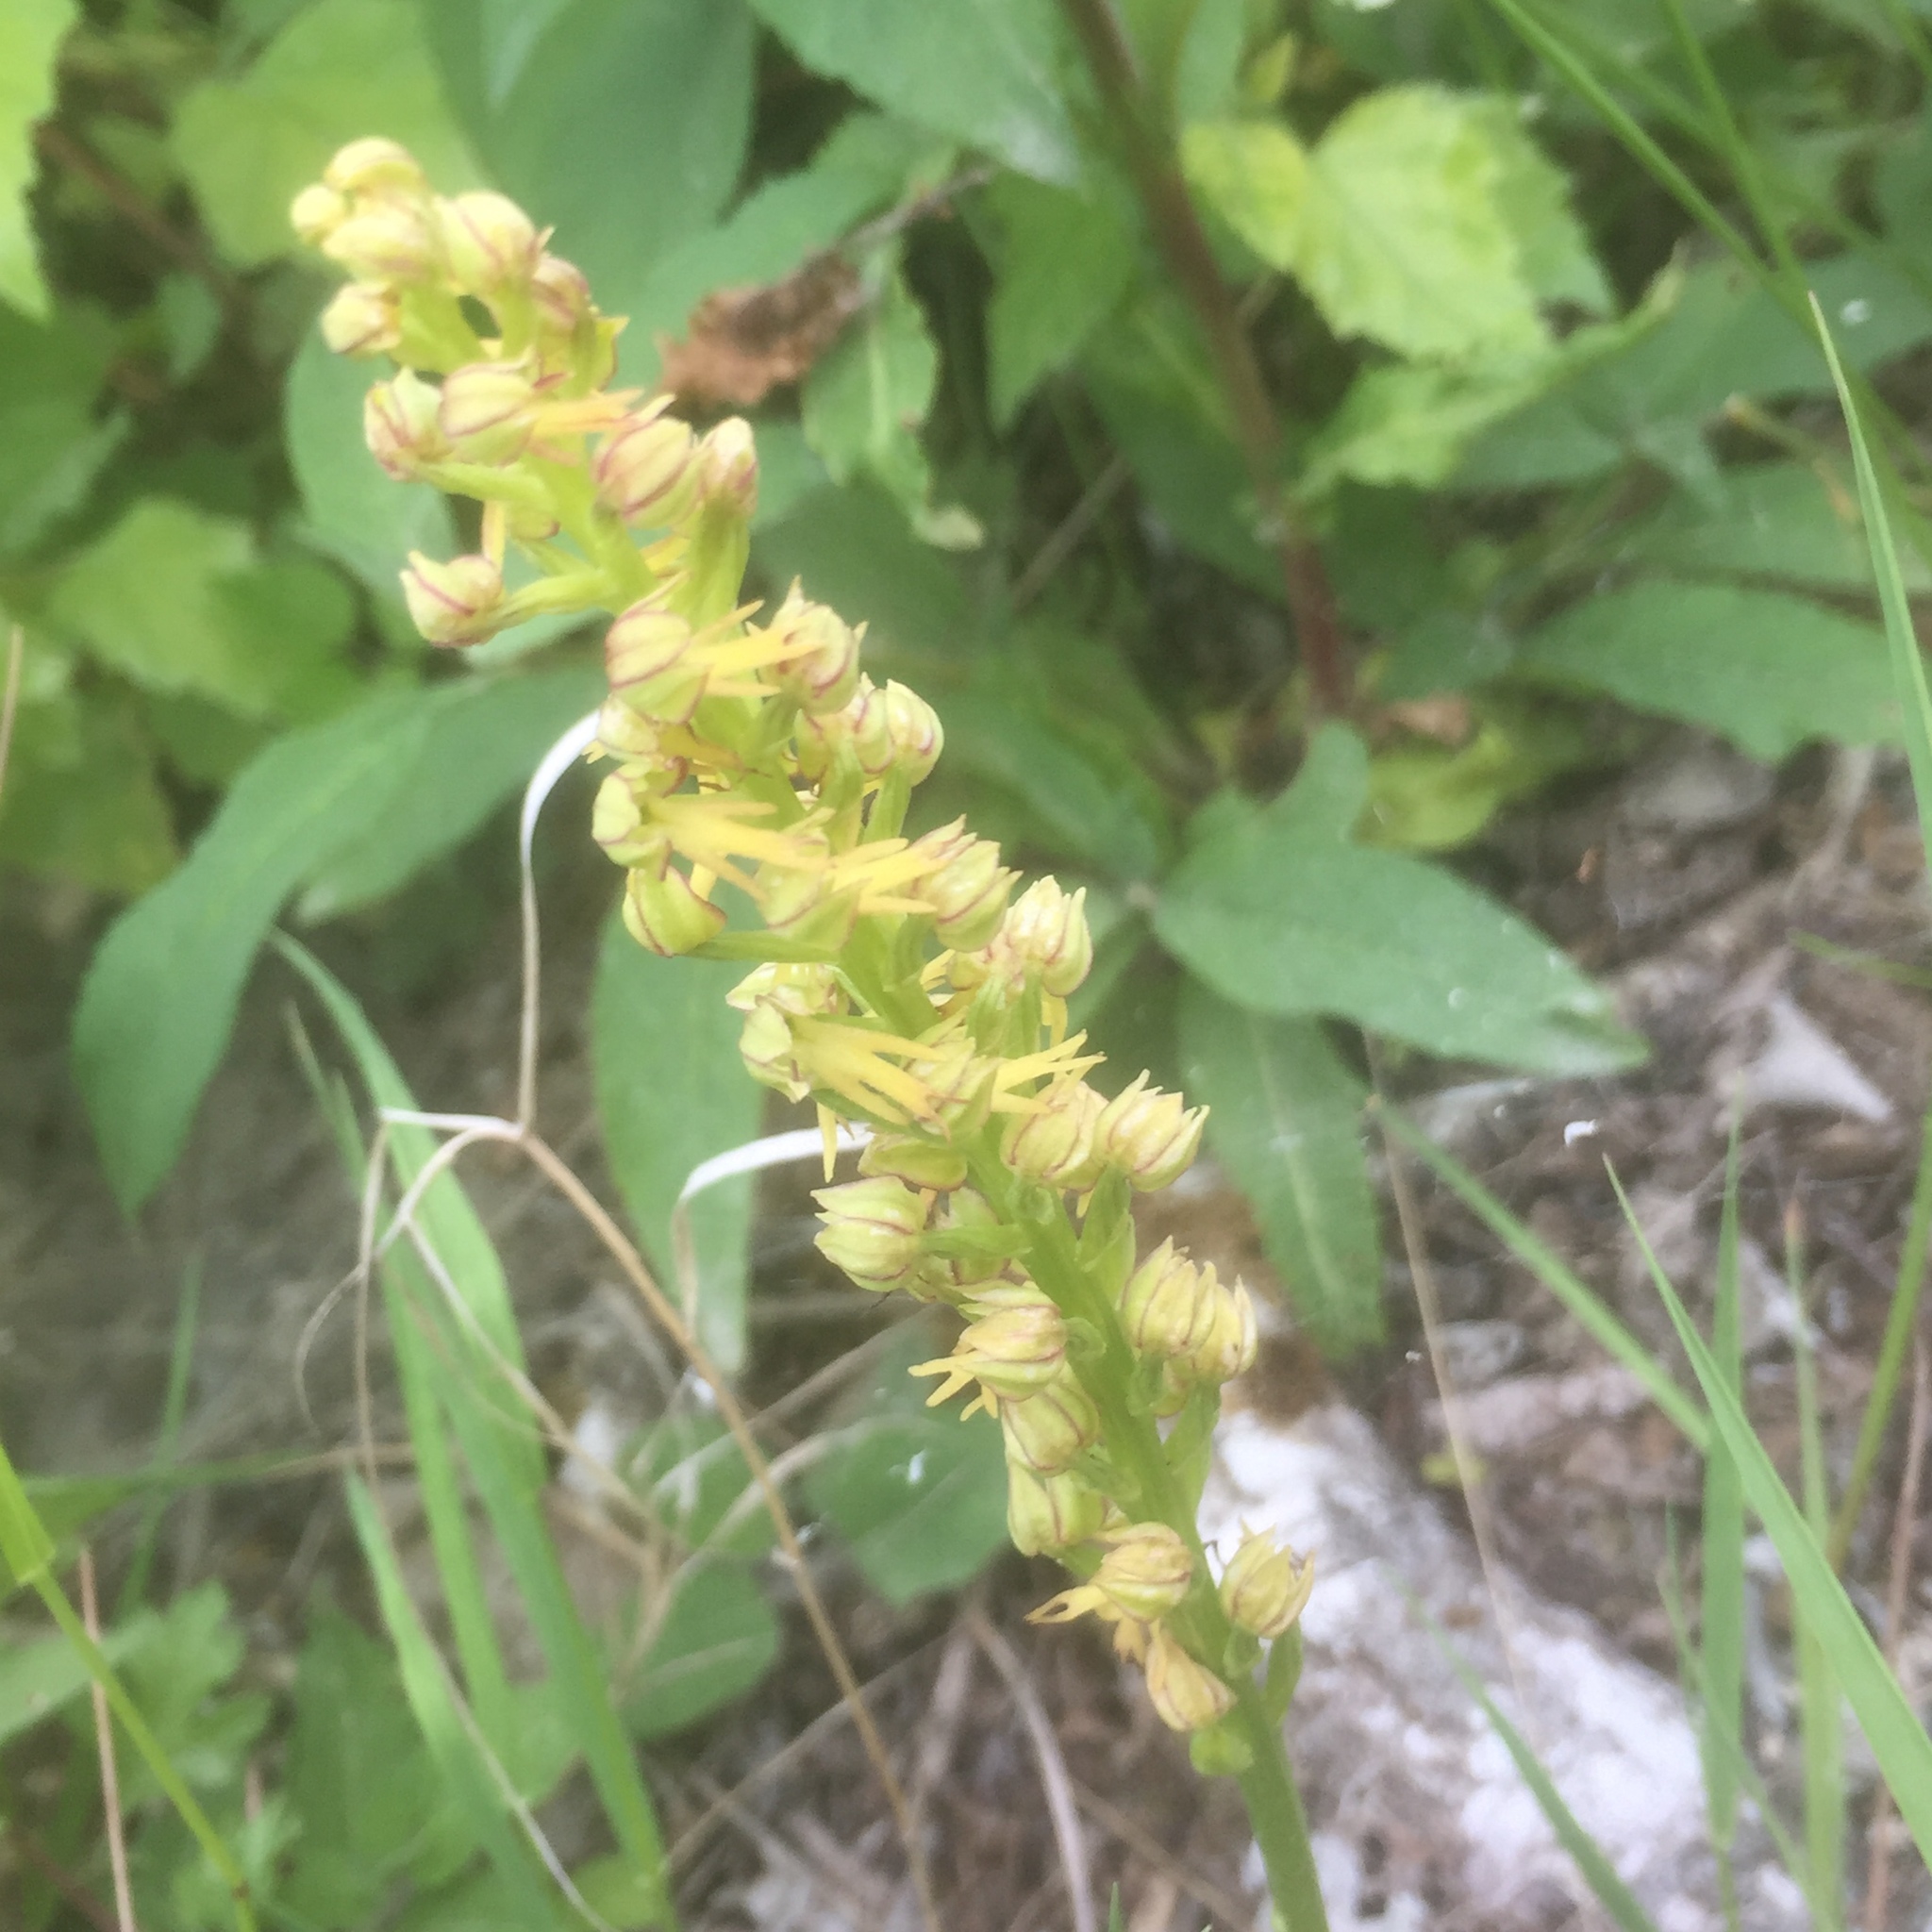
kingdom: Plantae
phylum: Tracheophyta
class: Liliopsida
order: Asparagales
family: Orchidaceae
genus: Orchis
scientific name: Orchis anthropophora
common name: Man orchid
